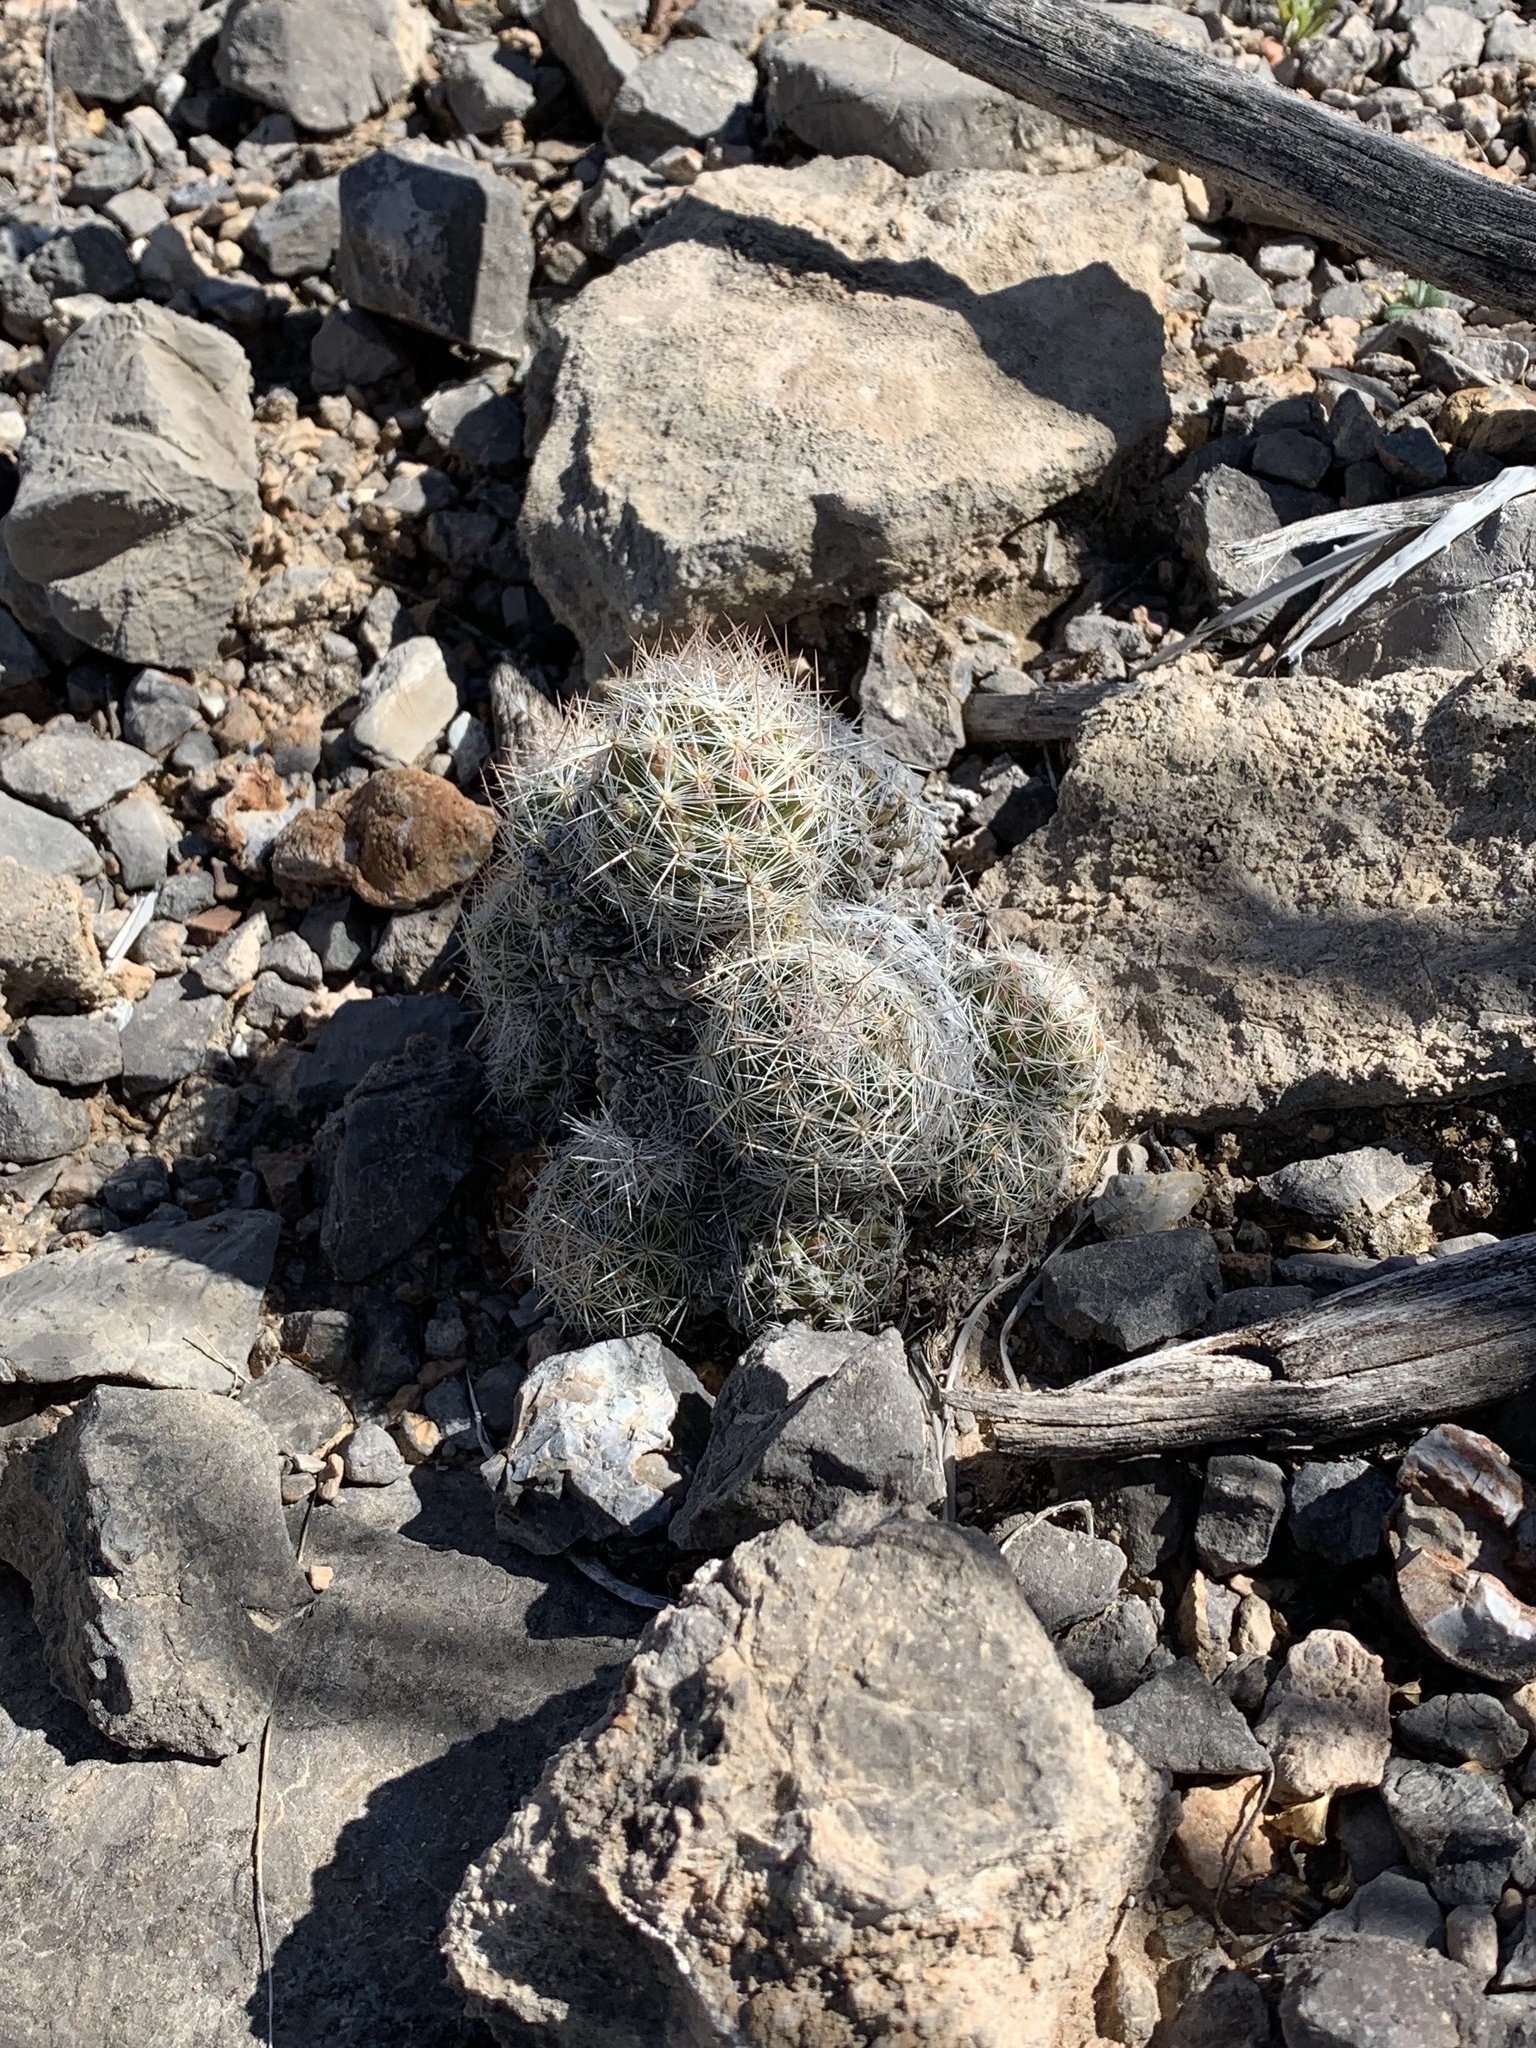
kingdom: Plantae
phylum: Tracheophyta
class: Magnoliopsida
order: Caryophyllales
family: Cactaceae
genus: Pelecyphora
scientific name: Pelecyphora tuberculosa
